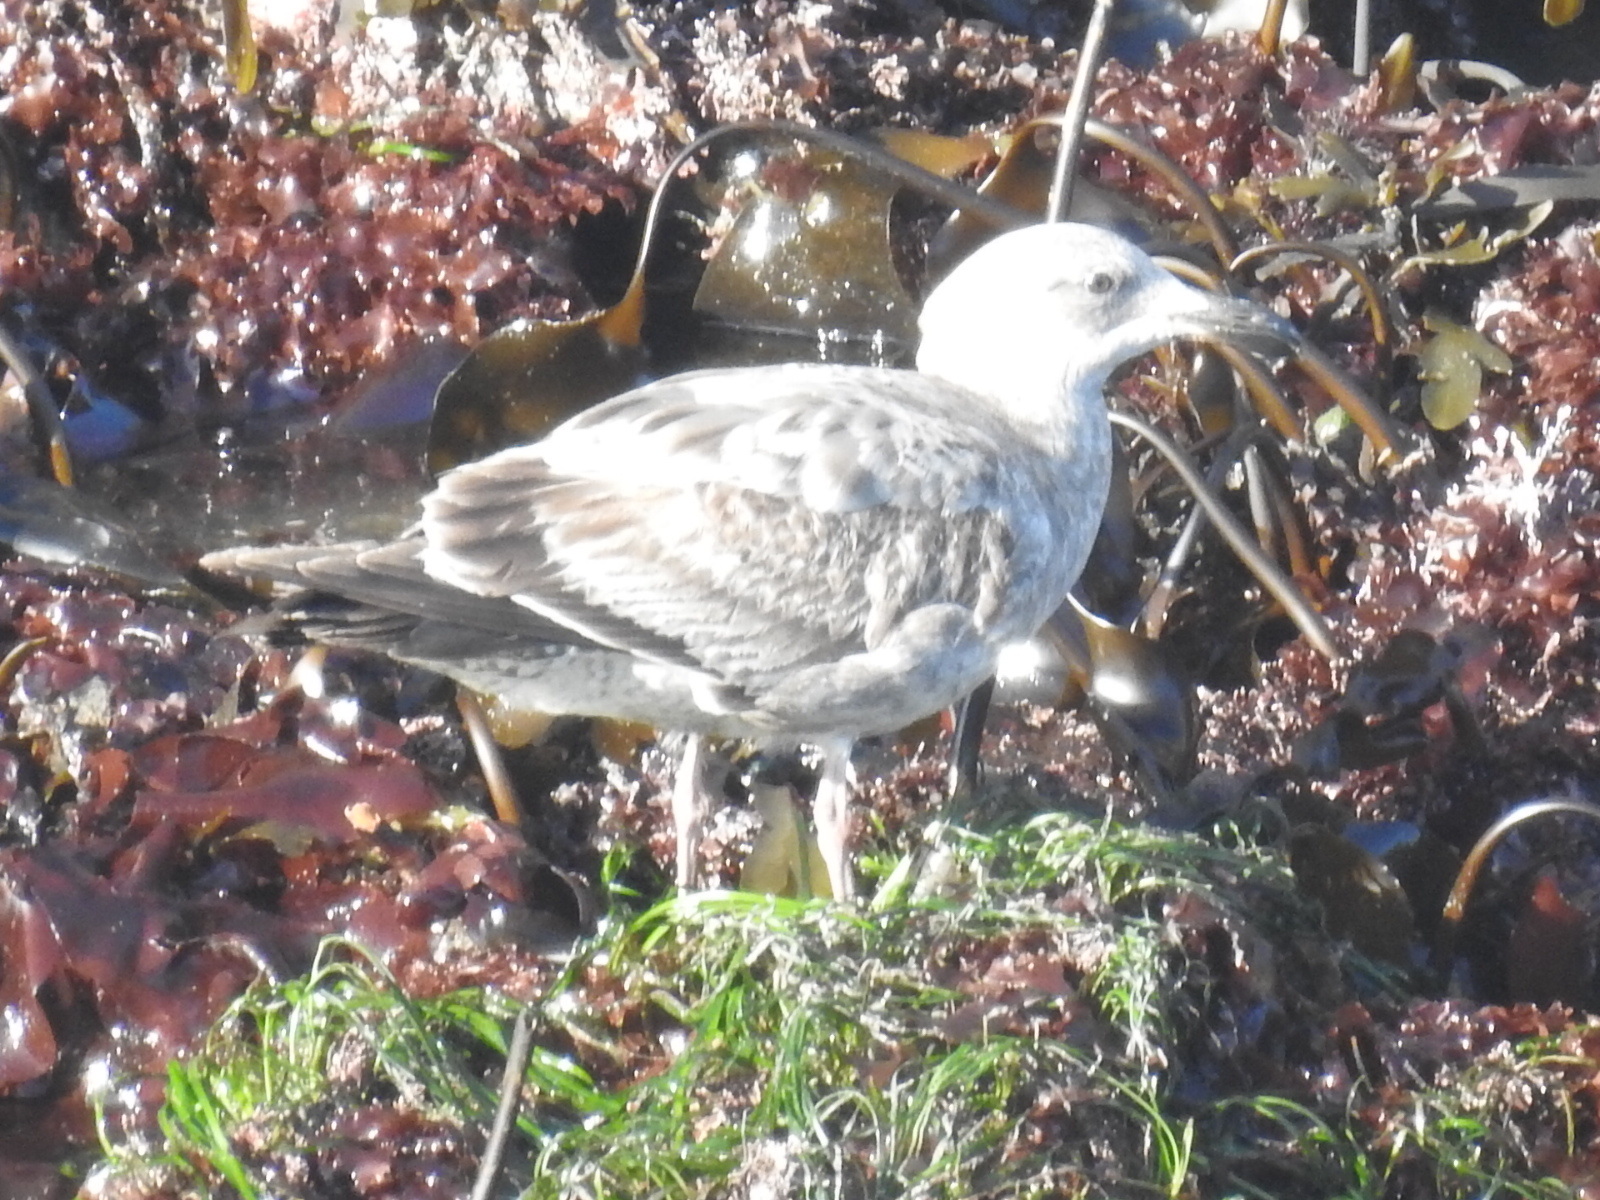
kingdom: Animalia
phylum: Chordata
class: Aves
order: Charadriiformes
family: Laridae
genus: Larus
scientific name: Larus occidentalis
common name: Western gull
